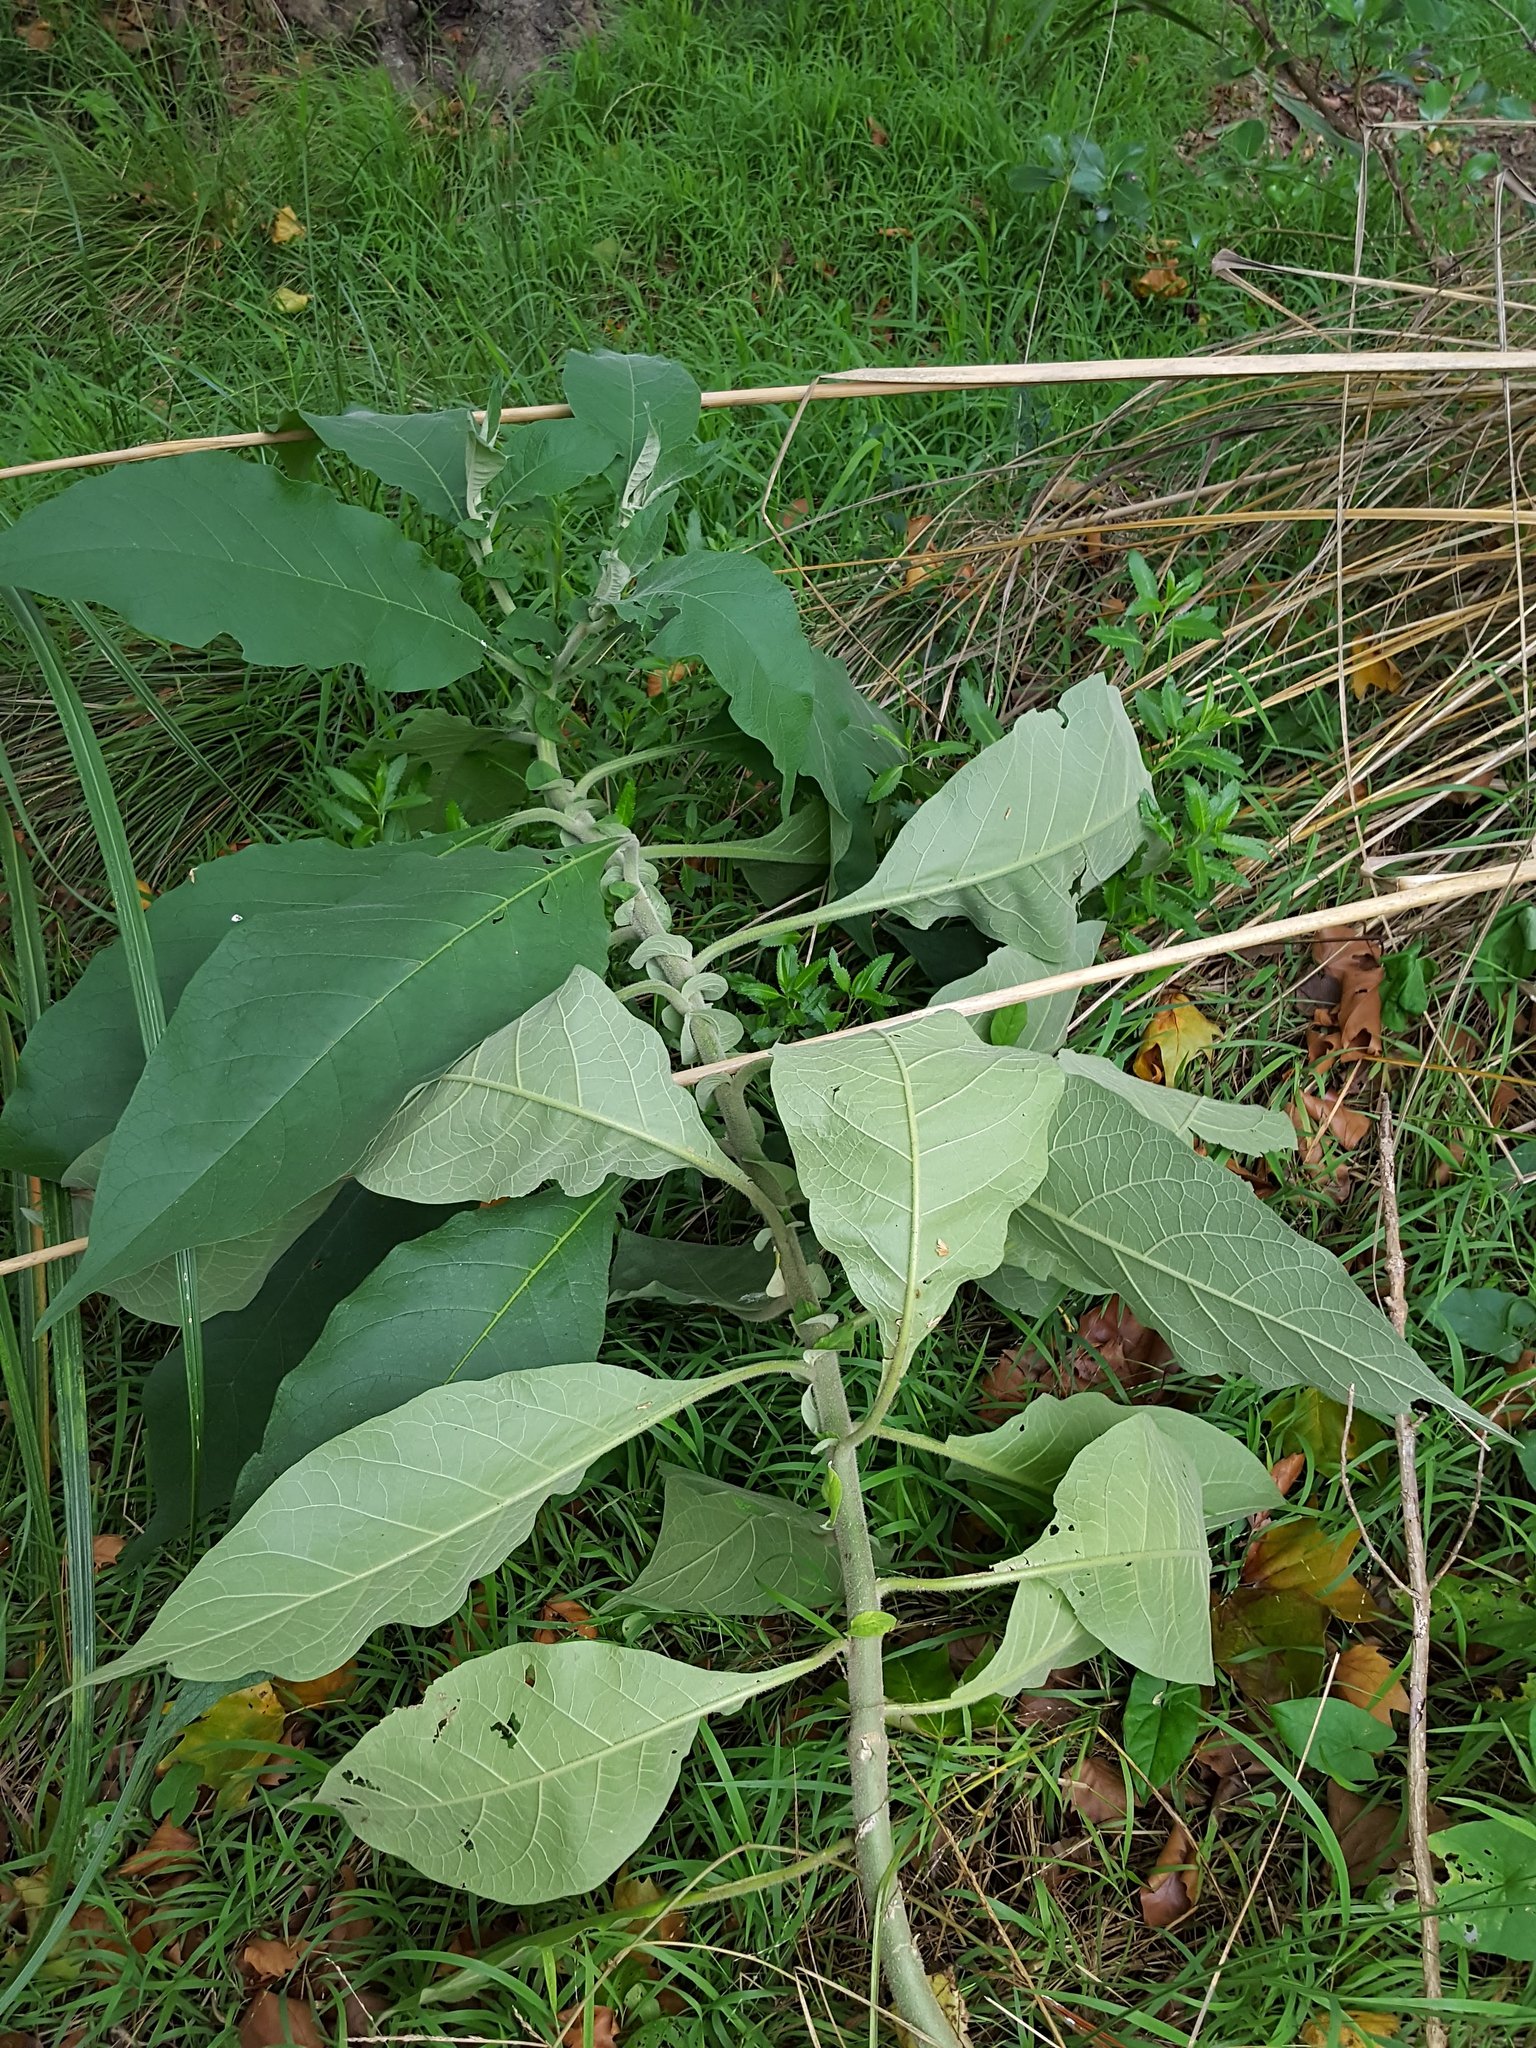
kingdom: Plantae
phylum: Tracheophyta
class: Magnoliopsida
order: Solanales
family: Solanaceae
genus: Solanum
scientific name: Solanum mauritianum
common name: Earleaf nightshade
